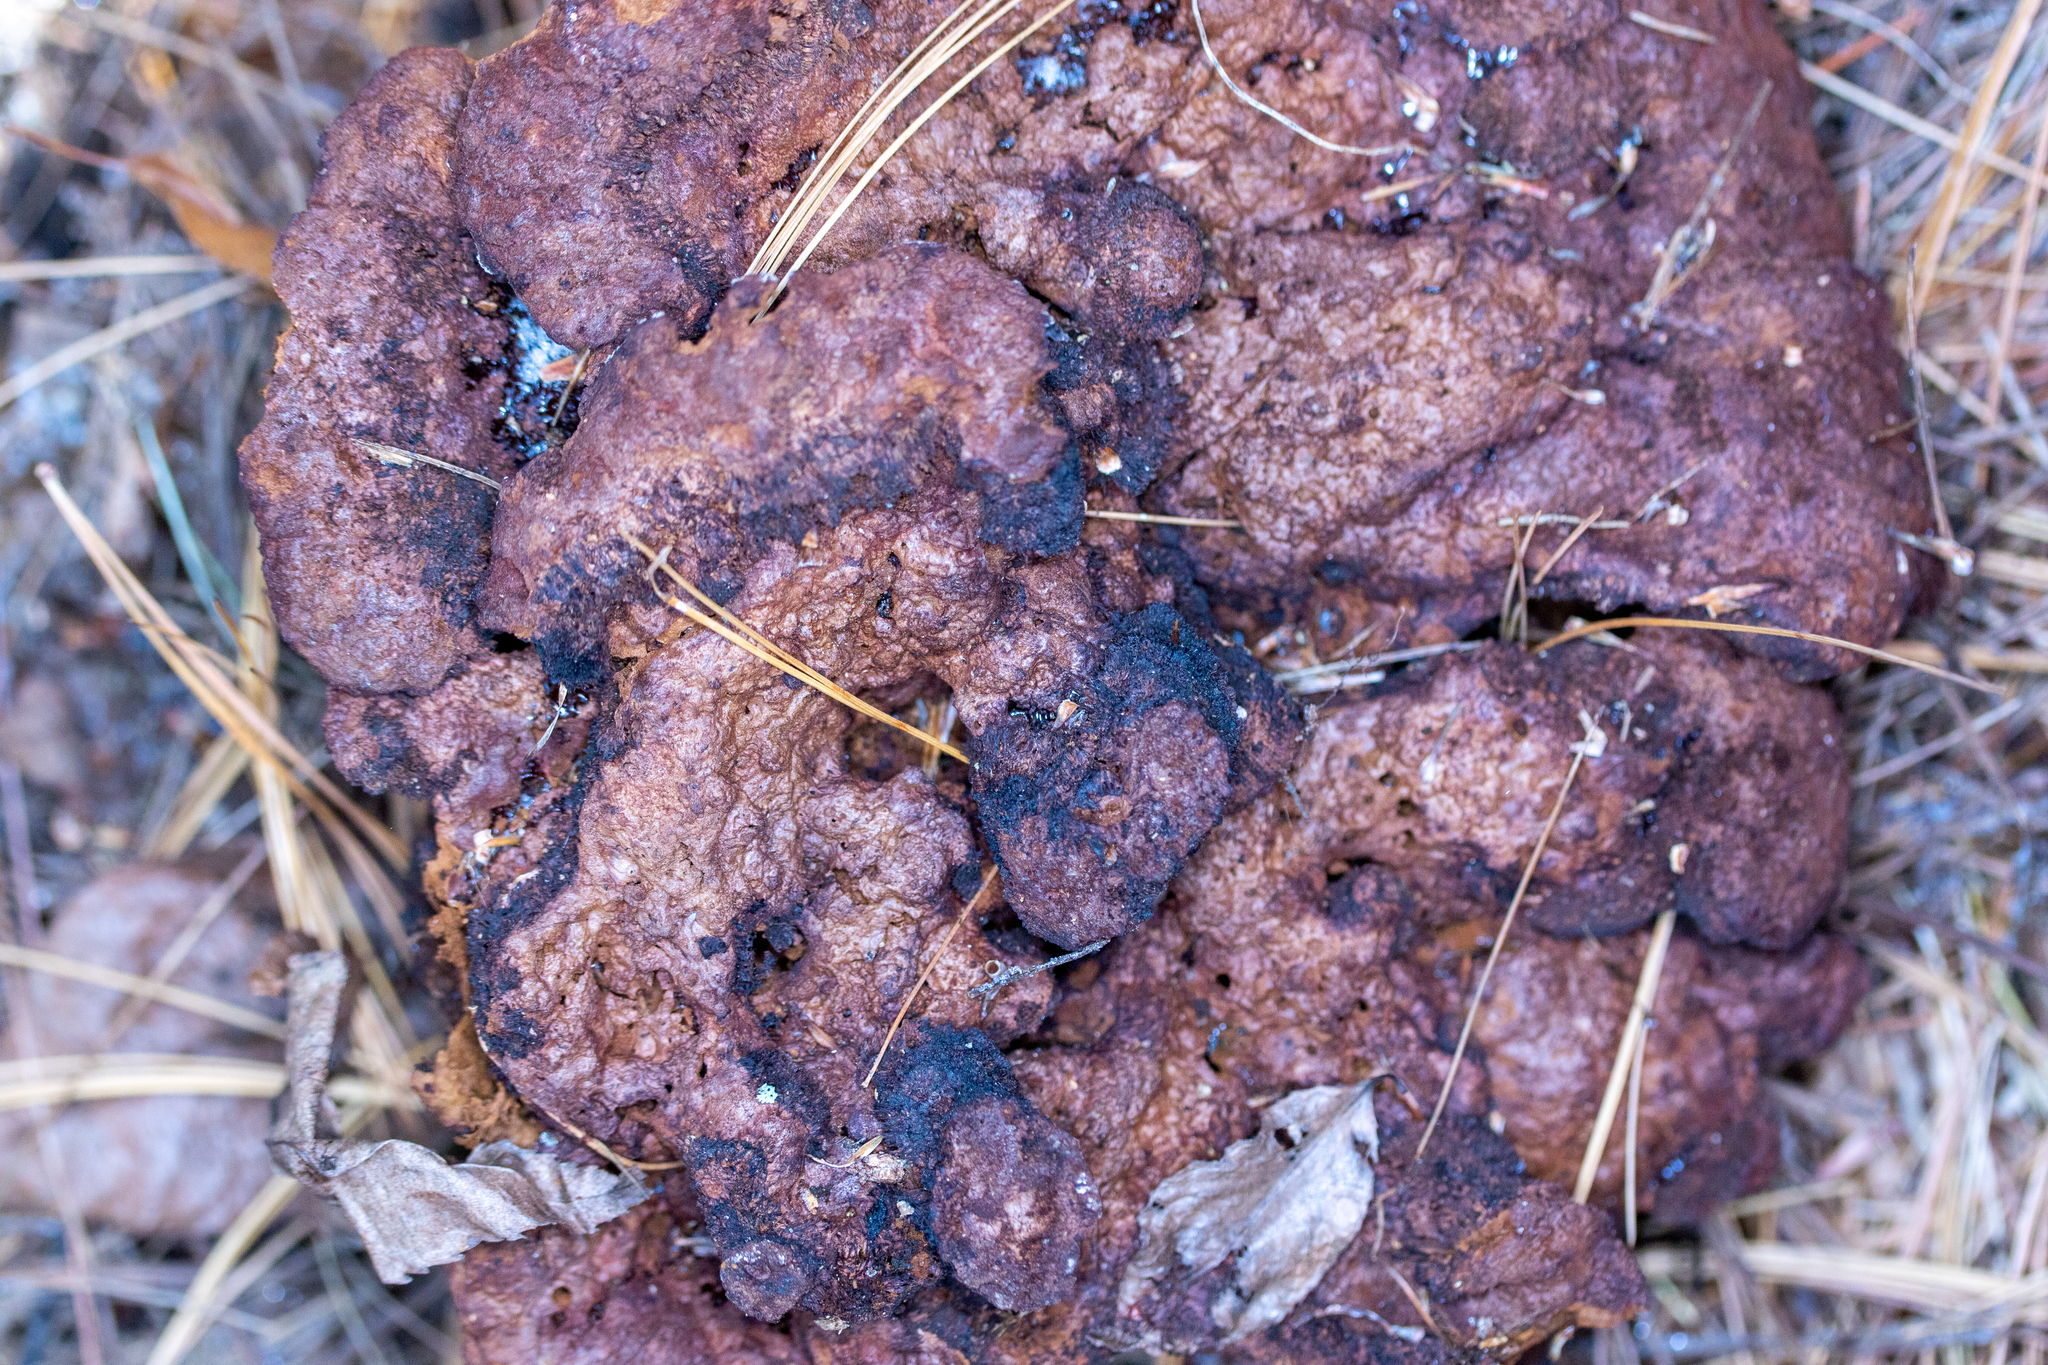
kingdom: Fungi
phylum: Basidiomycota
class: Agaricomycetes
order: Polyporales
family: Laetiporaceae
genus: Phaeolus
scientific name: Phaeolus schweinitzii
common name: Dyer's mazegill
